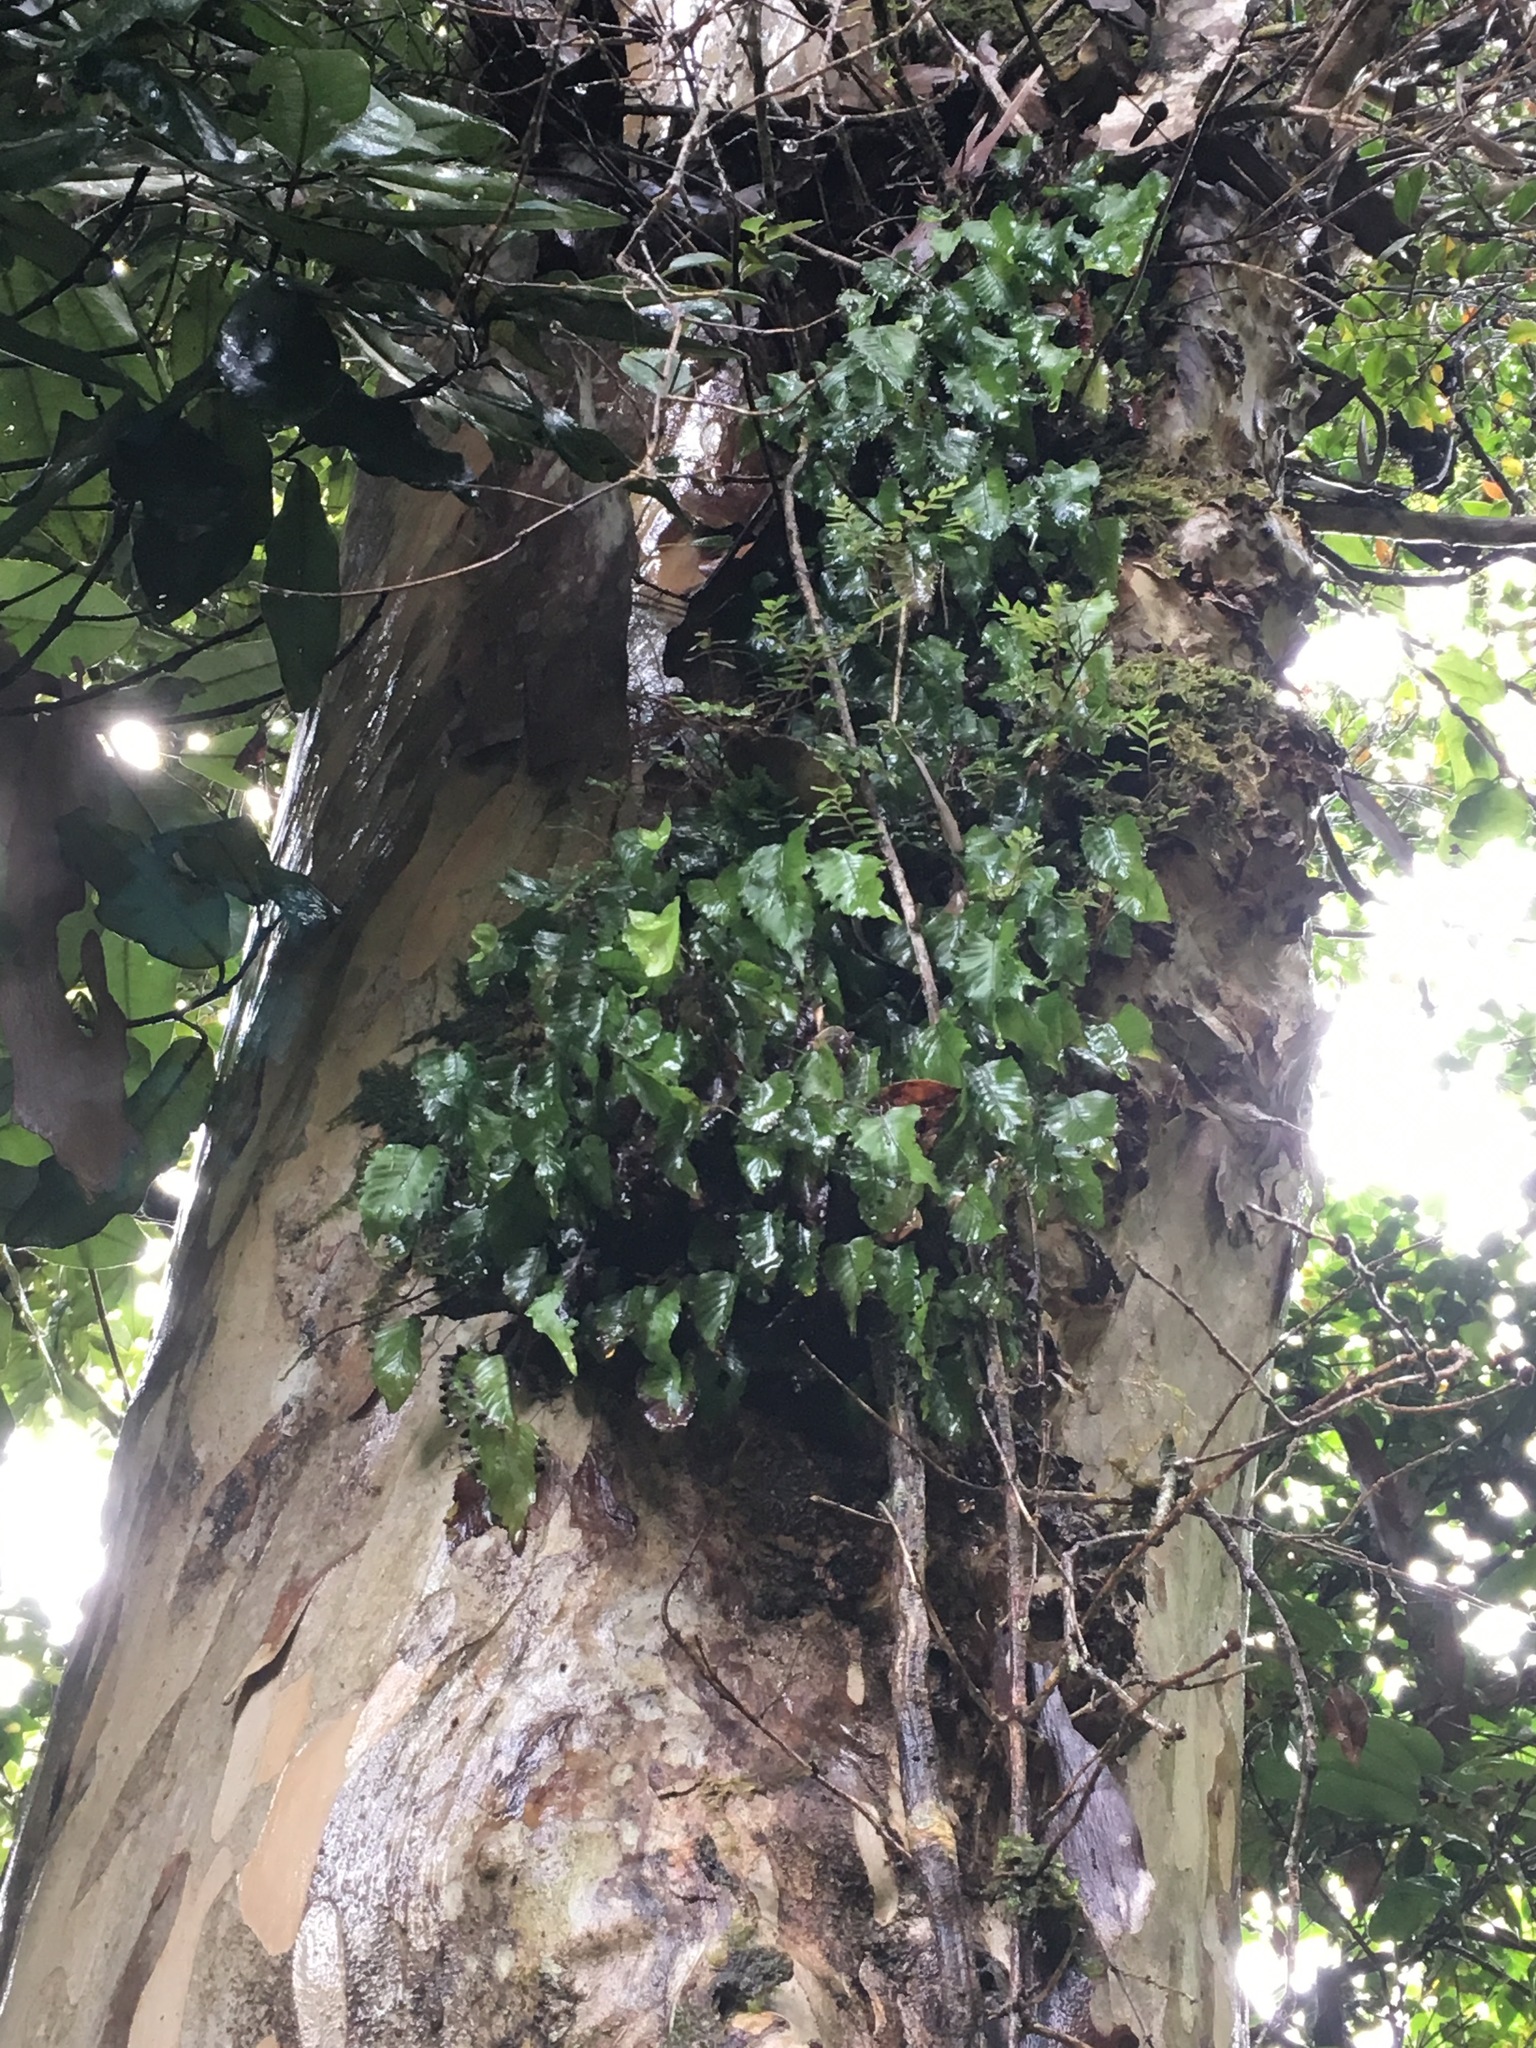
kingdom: Plantae
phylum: Tracheophyta
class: Polypodiopsida
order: Hymenophyllales
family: Hymenophyllaceae
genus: Hymenophyllum
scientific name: Hymenophyllum cruentum
